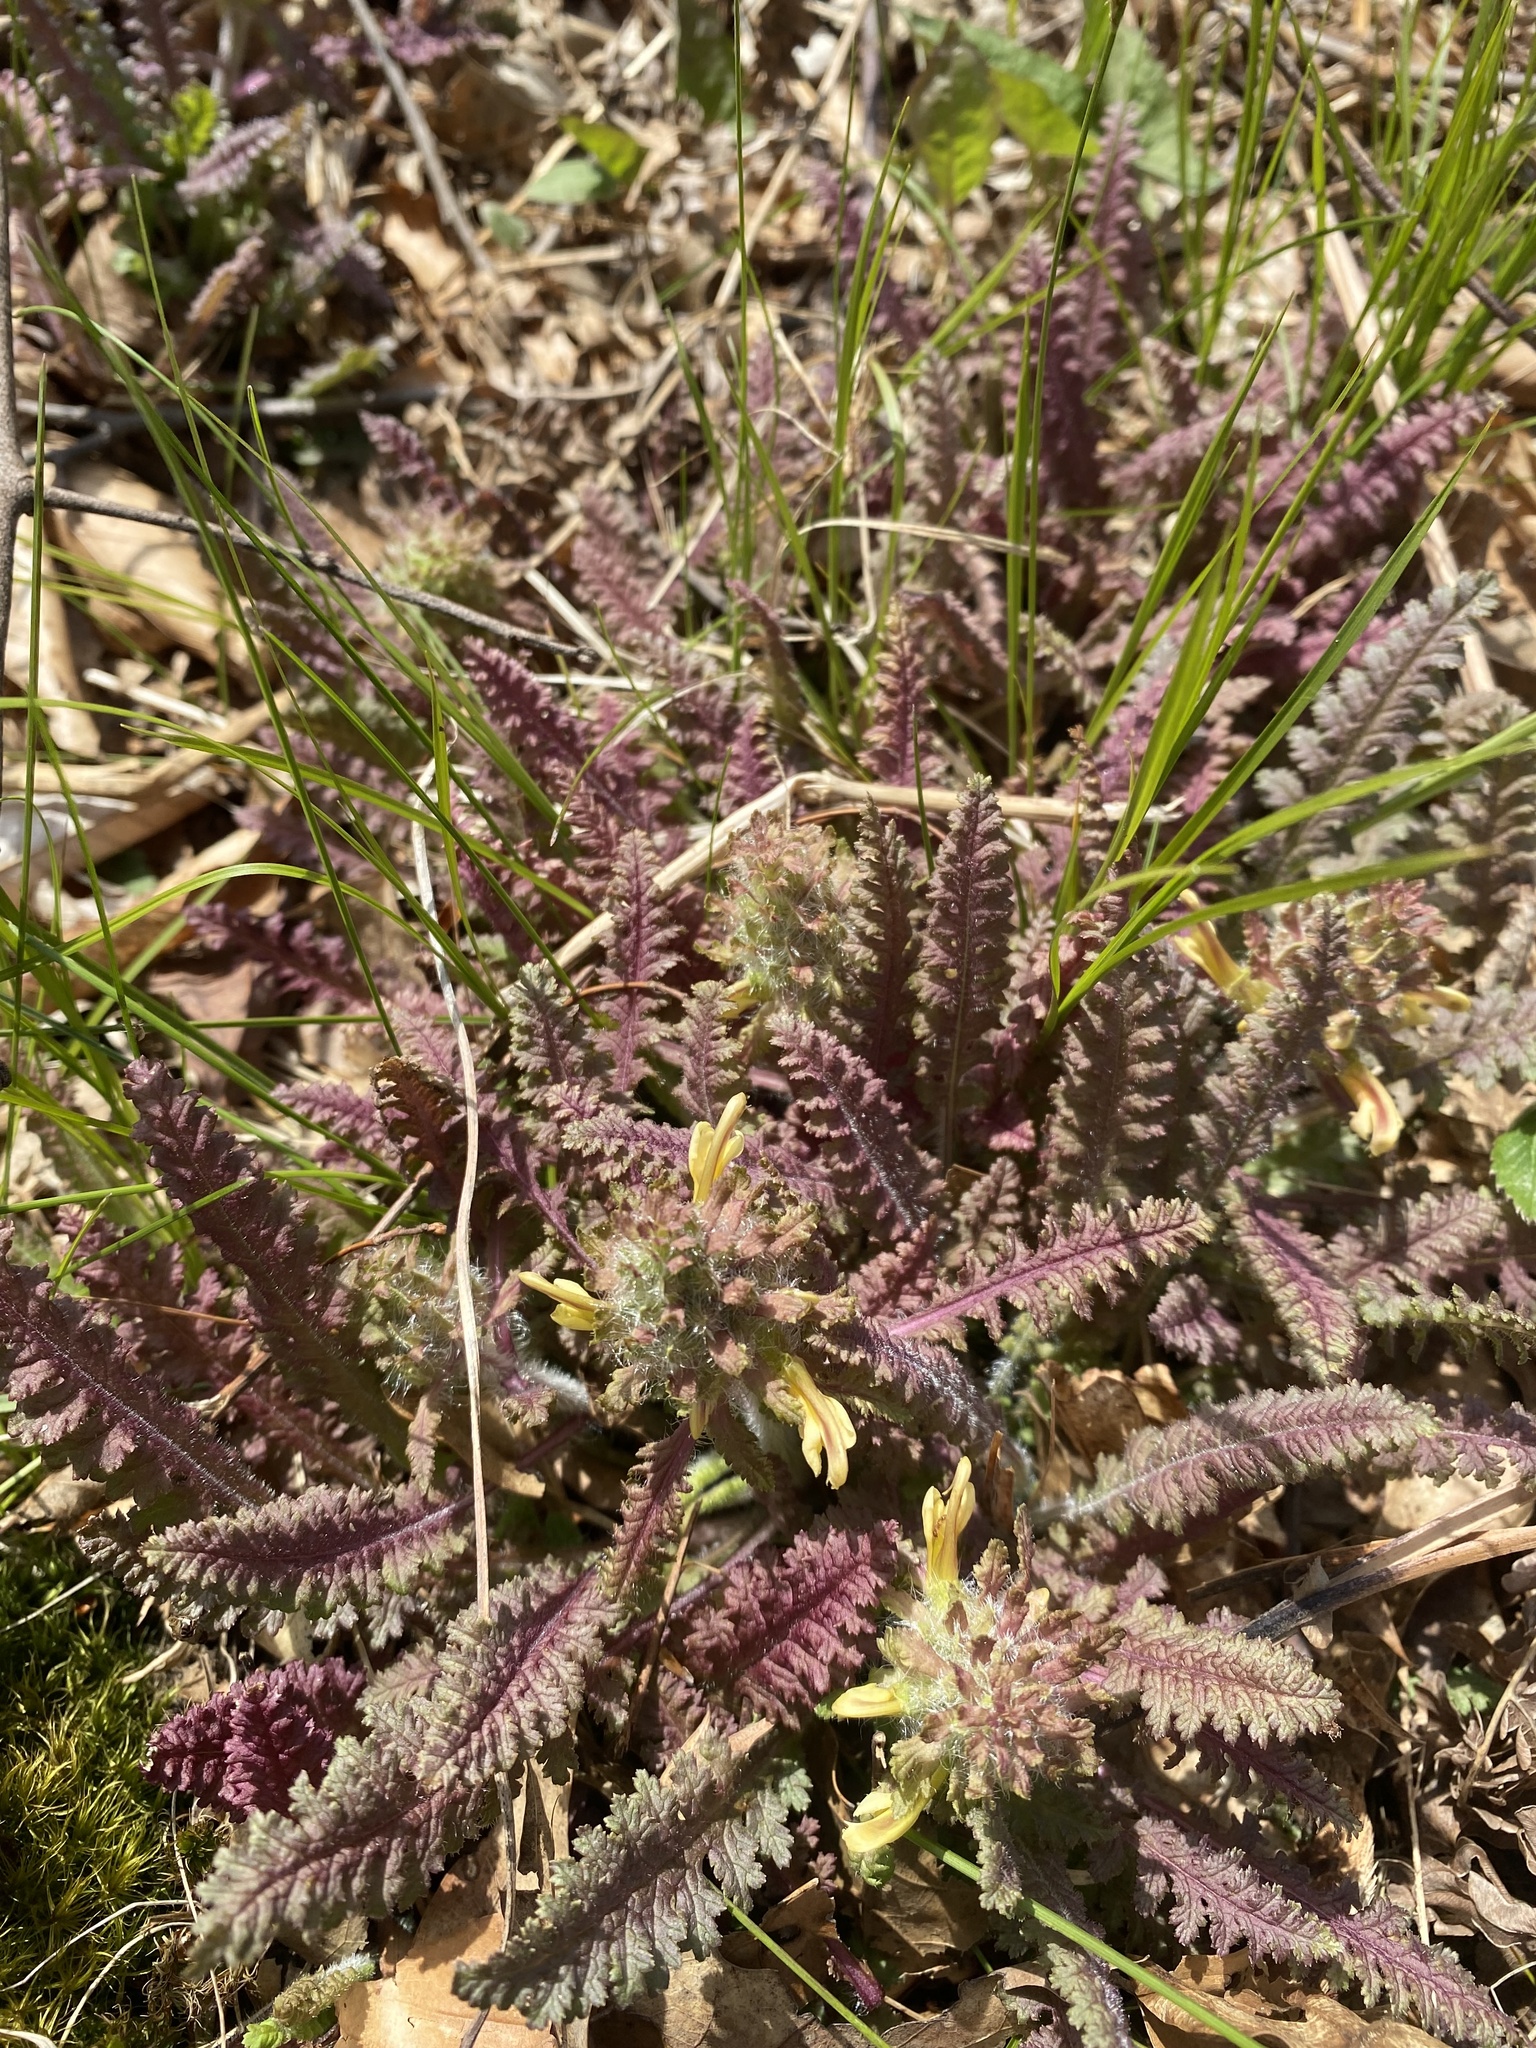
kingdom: Plantae
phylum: Tracheophyta
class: Magnoliopsida
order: Lamiales
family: Orobanchaceae
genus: Pedicularis
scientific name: Pedicularis canadensis
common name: Early lousewort
